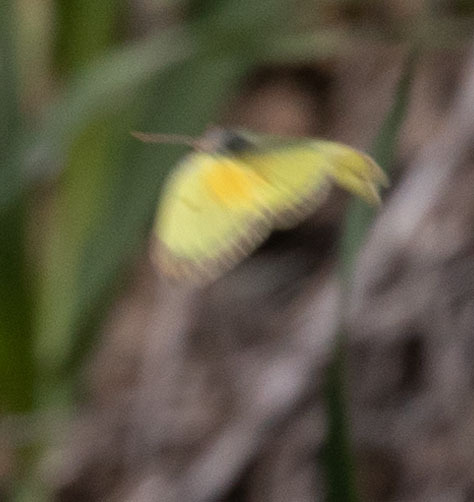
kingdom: Animalia
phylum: Arthropoda
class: Insecta
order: Lepidoptera
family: Pieridae
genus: Colias
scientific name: Colias eurytheme
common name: Alfalfa butterfly
